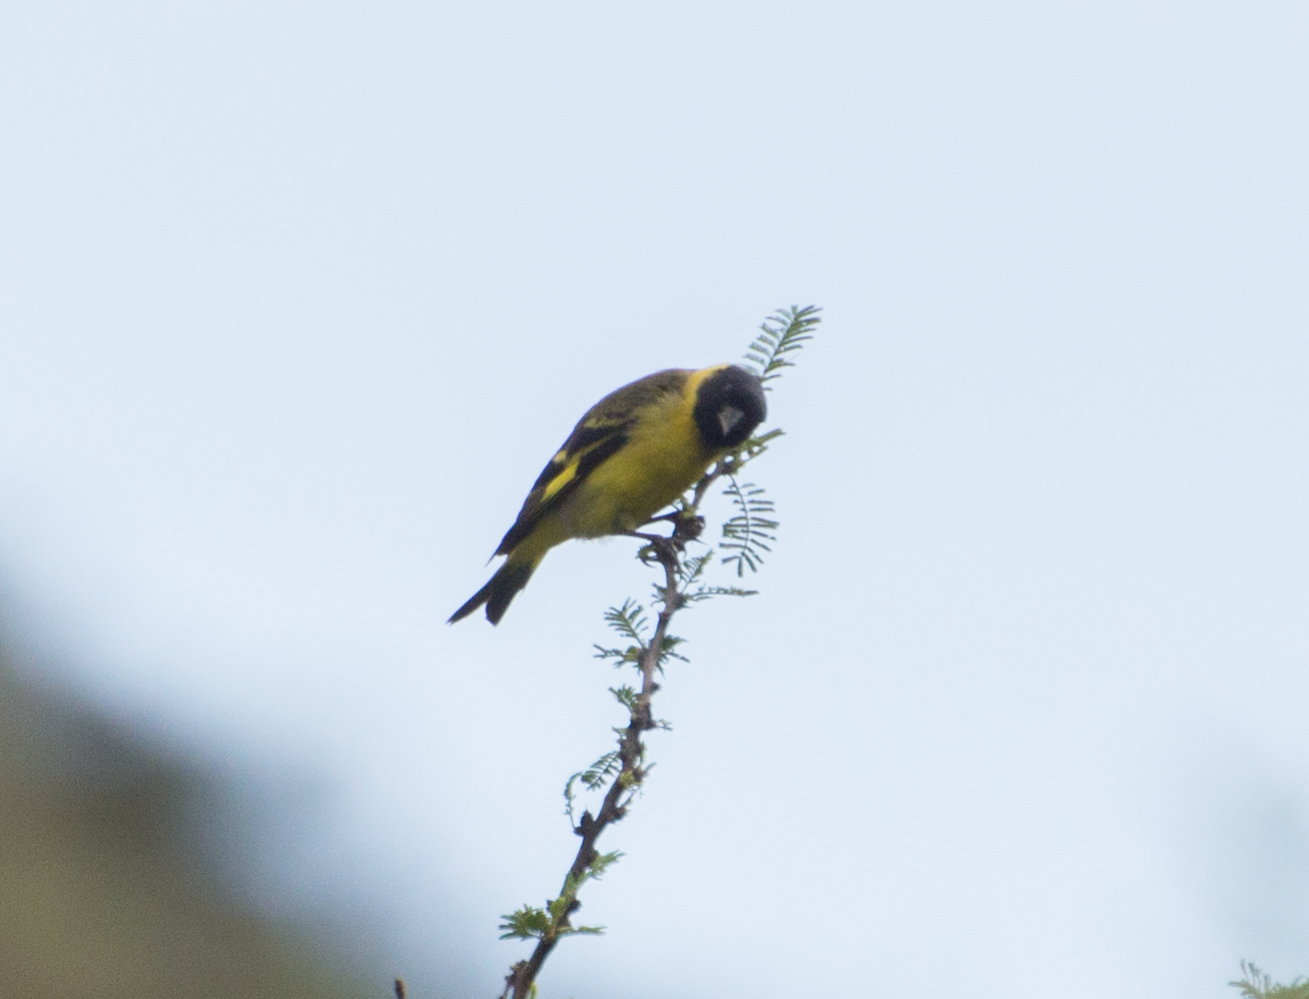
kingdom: Animalia
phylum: Chordata
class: Aves
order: Passeriformes
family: Fringillidae
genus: Spinus
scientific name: Spinus magellanicus
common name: Hooded siskin
